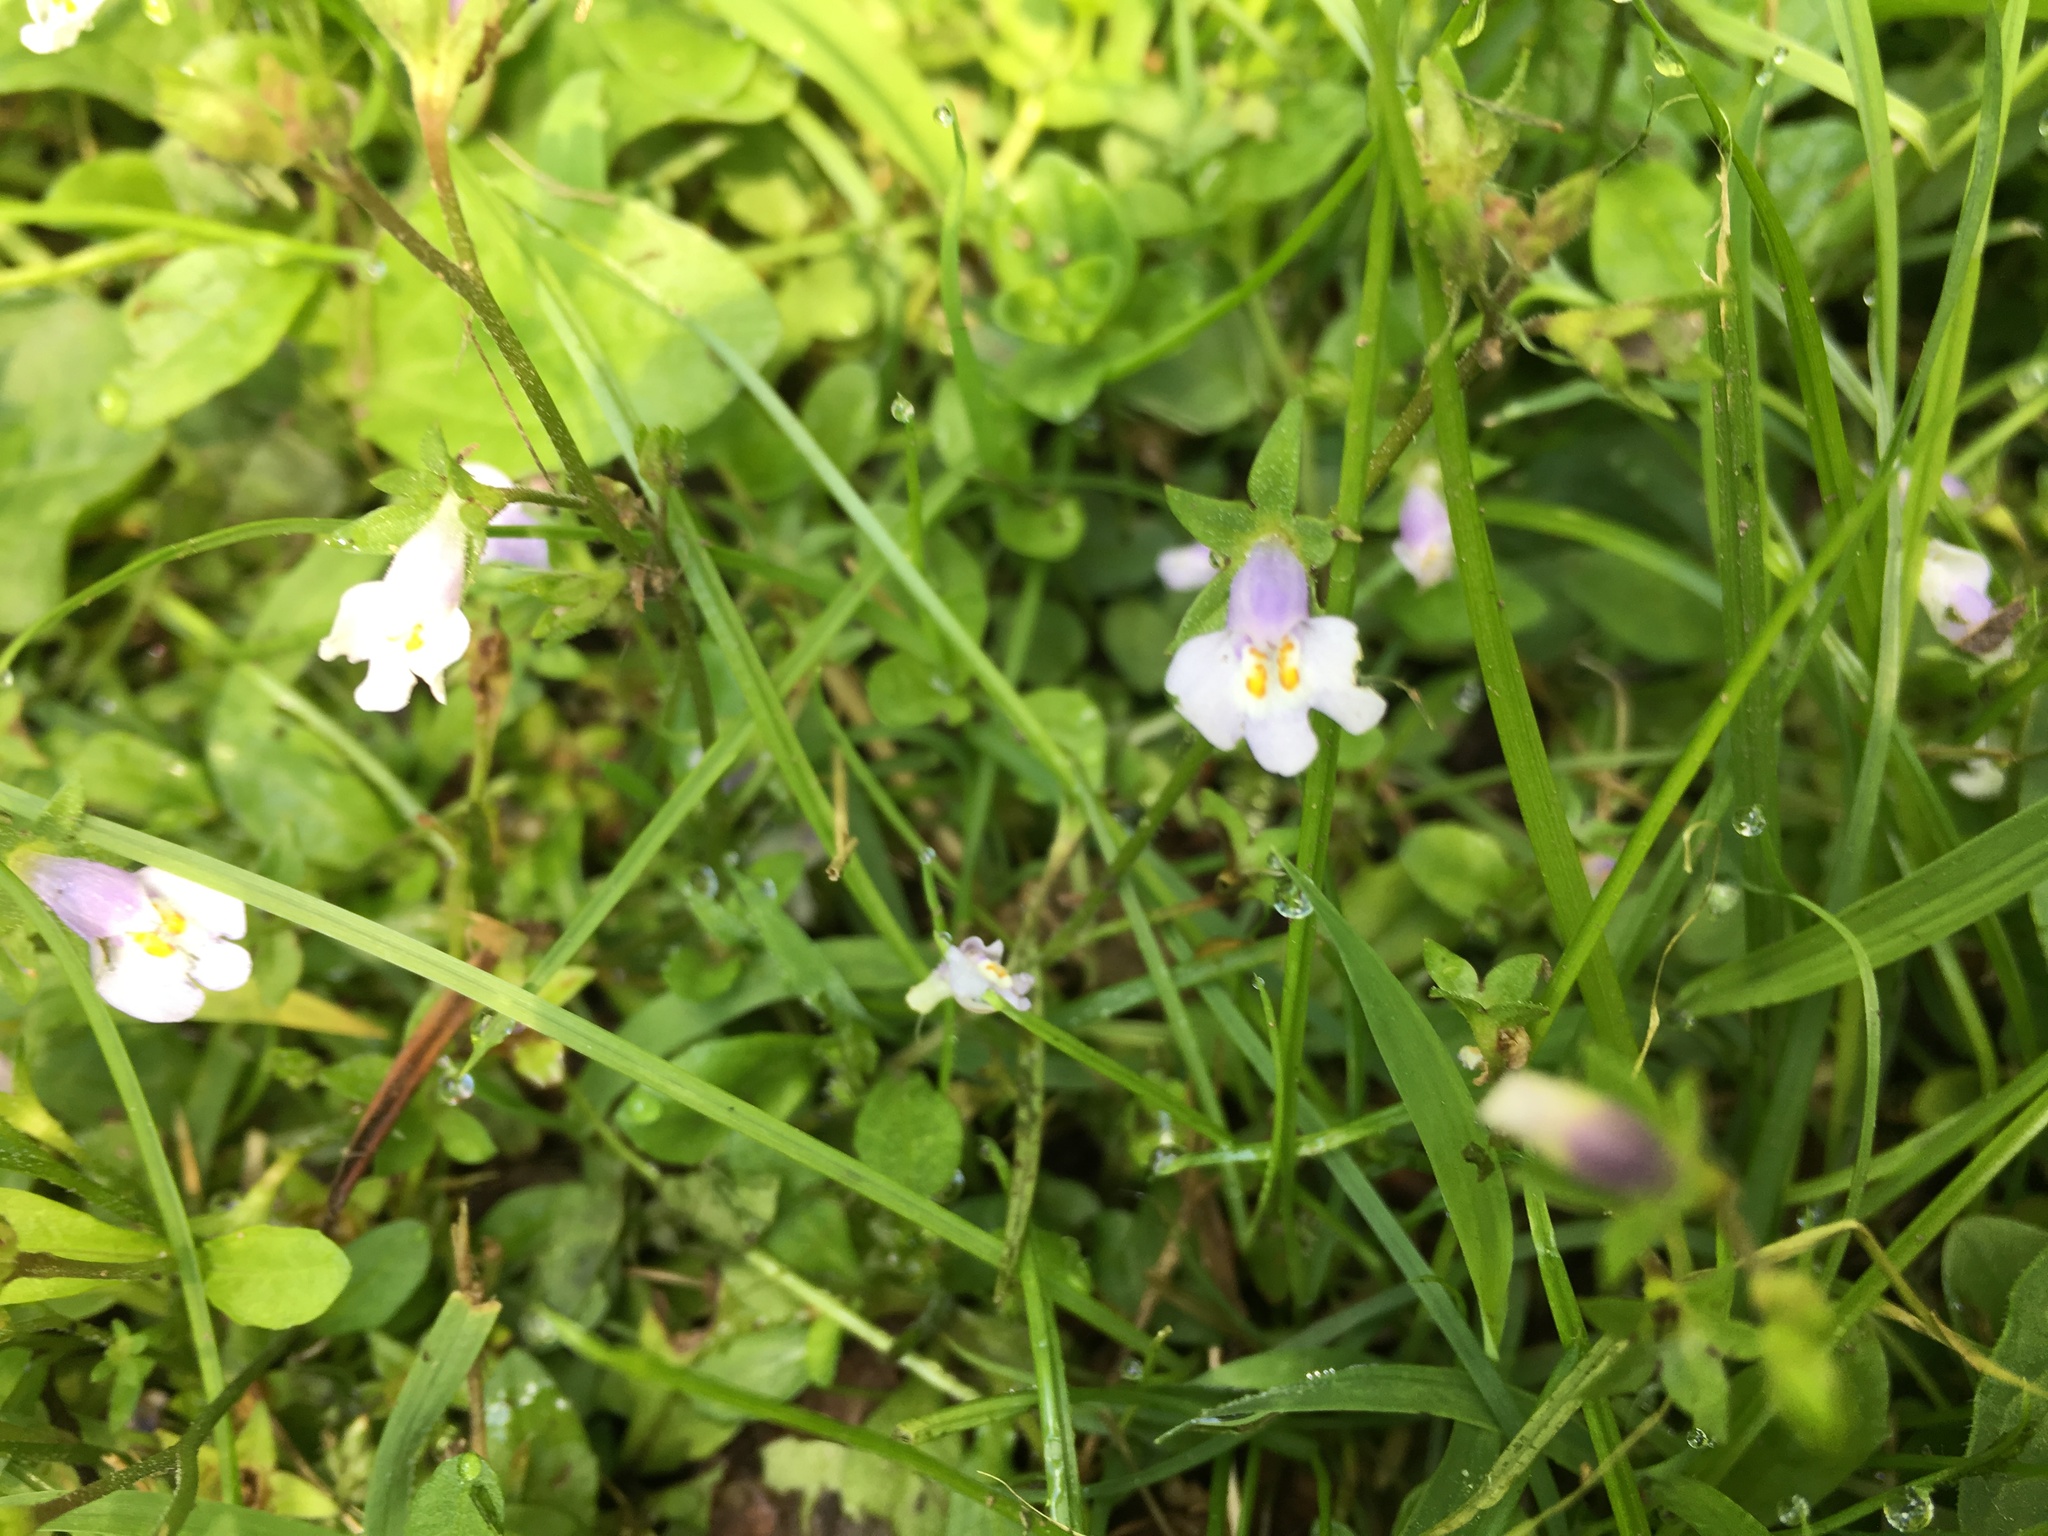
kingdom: Plantae
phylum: Tracheophyta
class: Magnoliopsida
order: Lamiales
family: Mazaceae
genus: Mazus
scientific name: Mazus pumilus
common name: Japanese mazus
